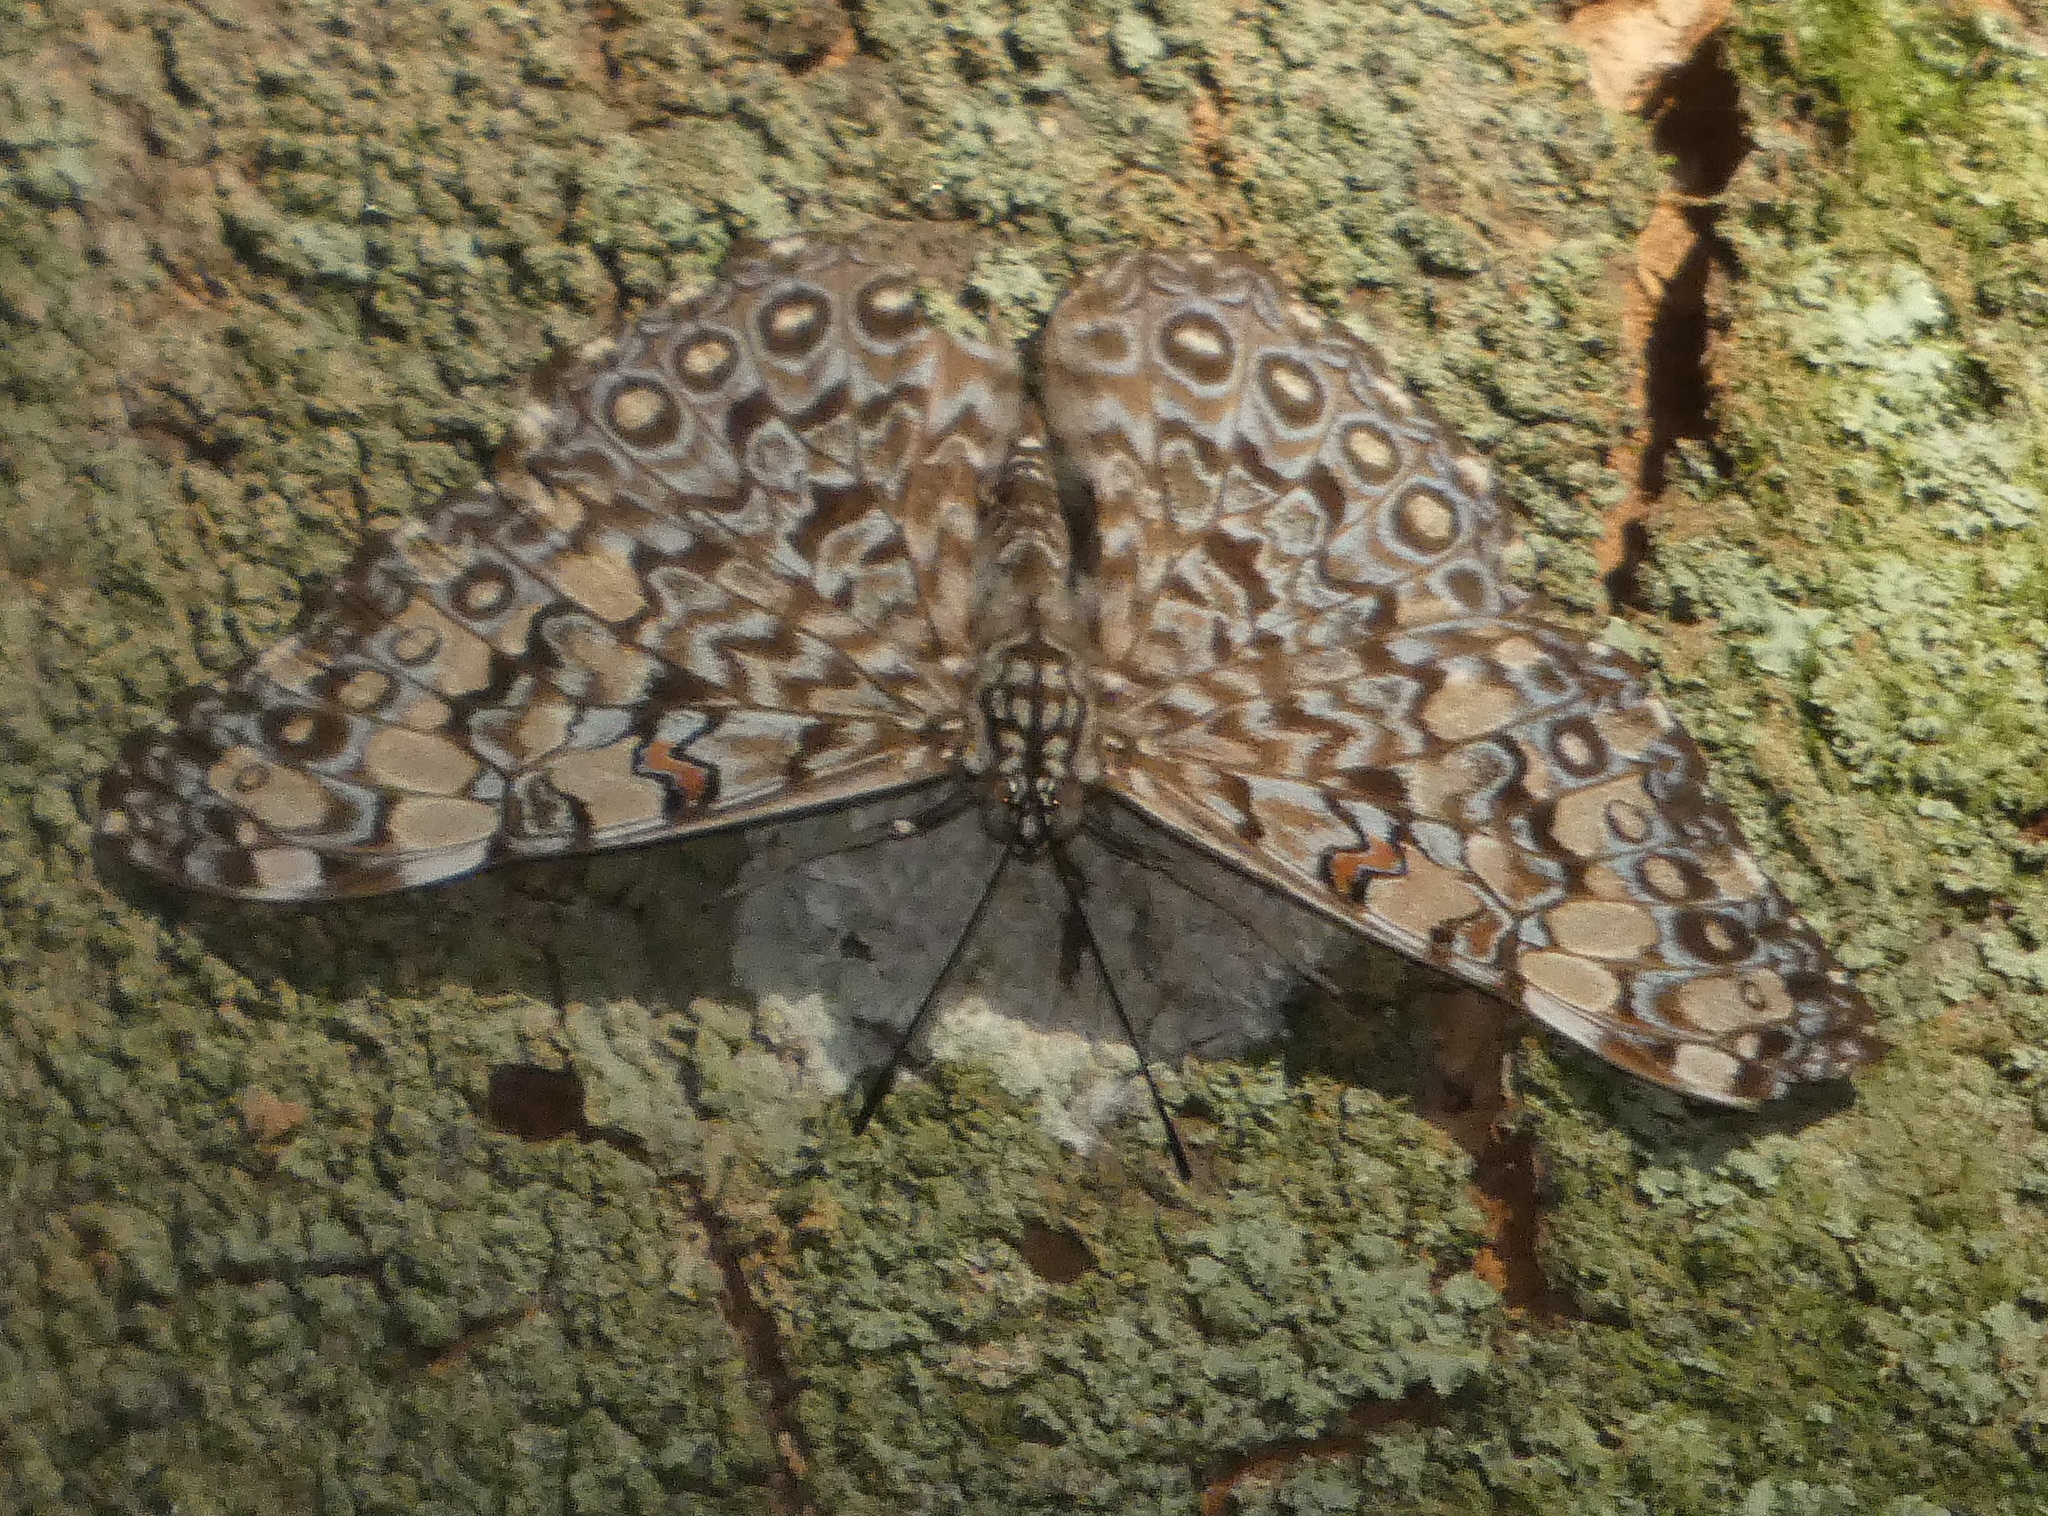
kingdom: Animalia
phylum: Arthropoda
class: Insecta
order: Lepidoptera
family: Nymphalidae
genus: Hamadryas
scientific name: Hamadryas feronia
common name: Variable cracker
